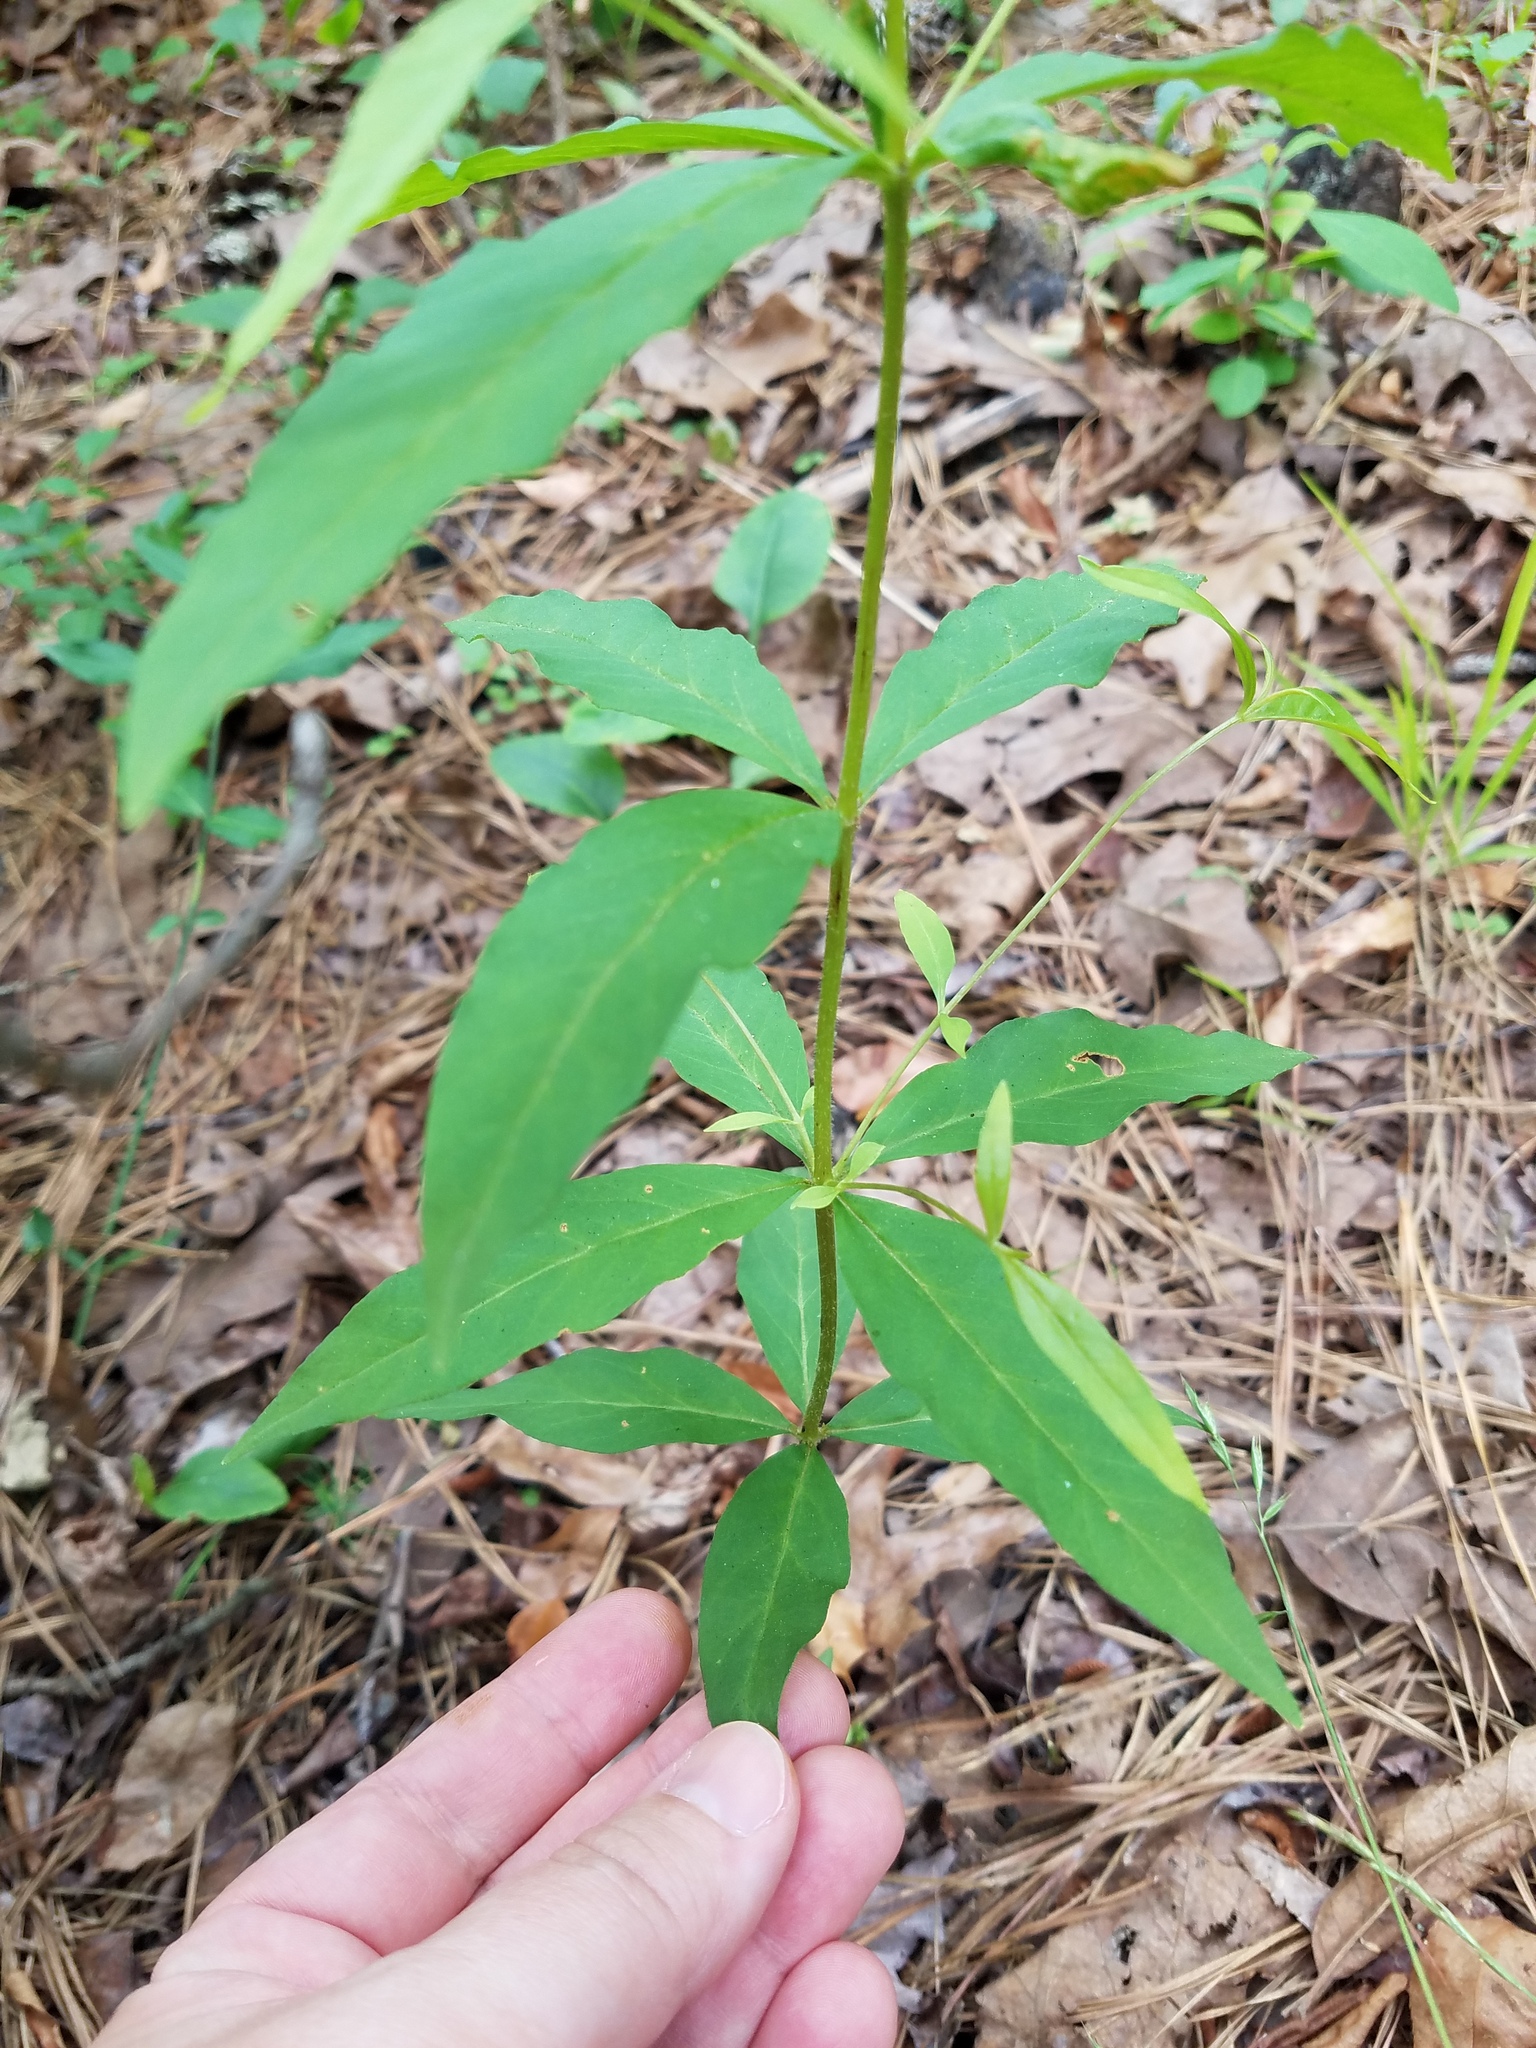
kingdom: Plantae
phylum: Tracheophyta
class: Magnoliopsida
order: Ericales
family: Primulaceae
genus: Lysimachia
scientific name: Lysimachia quadrifolia
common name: Whorled loosestrife
